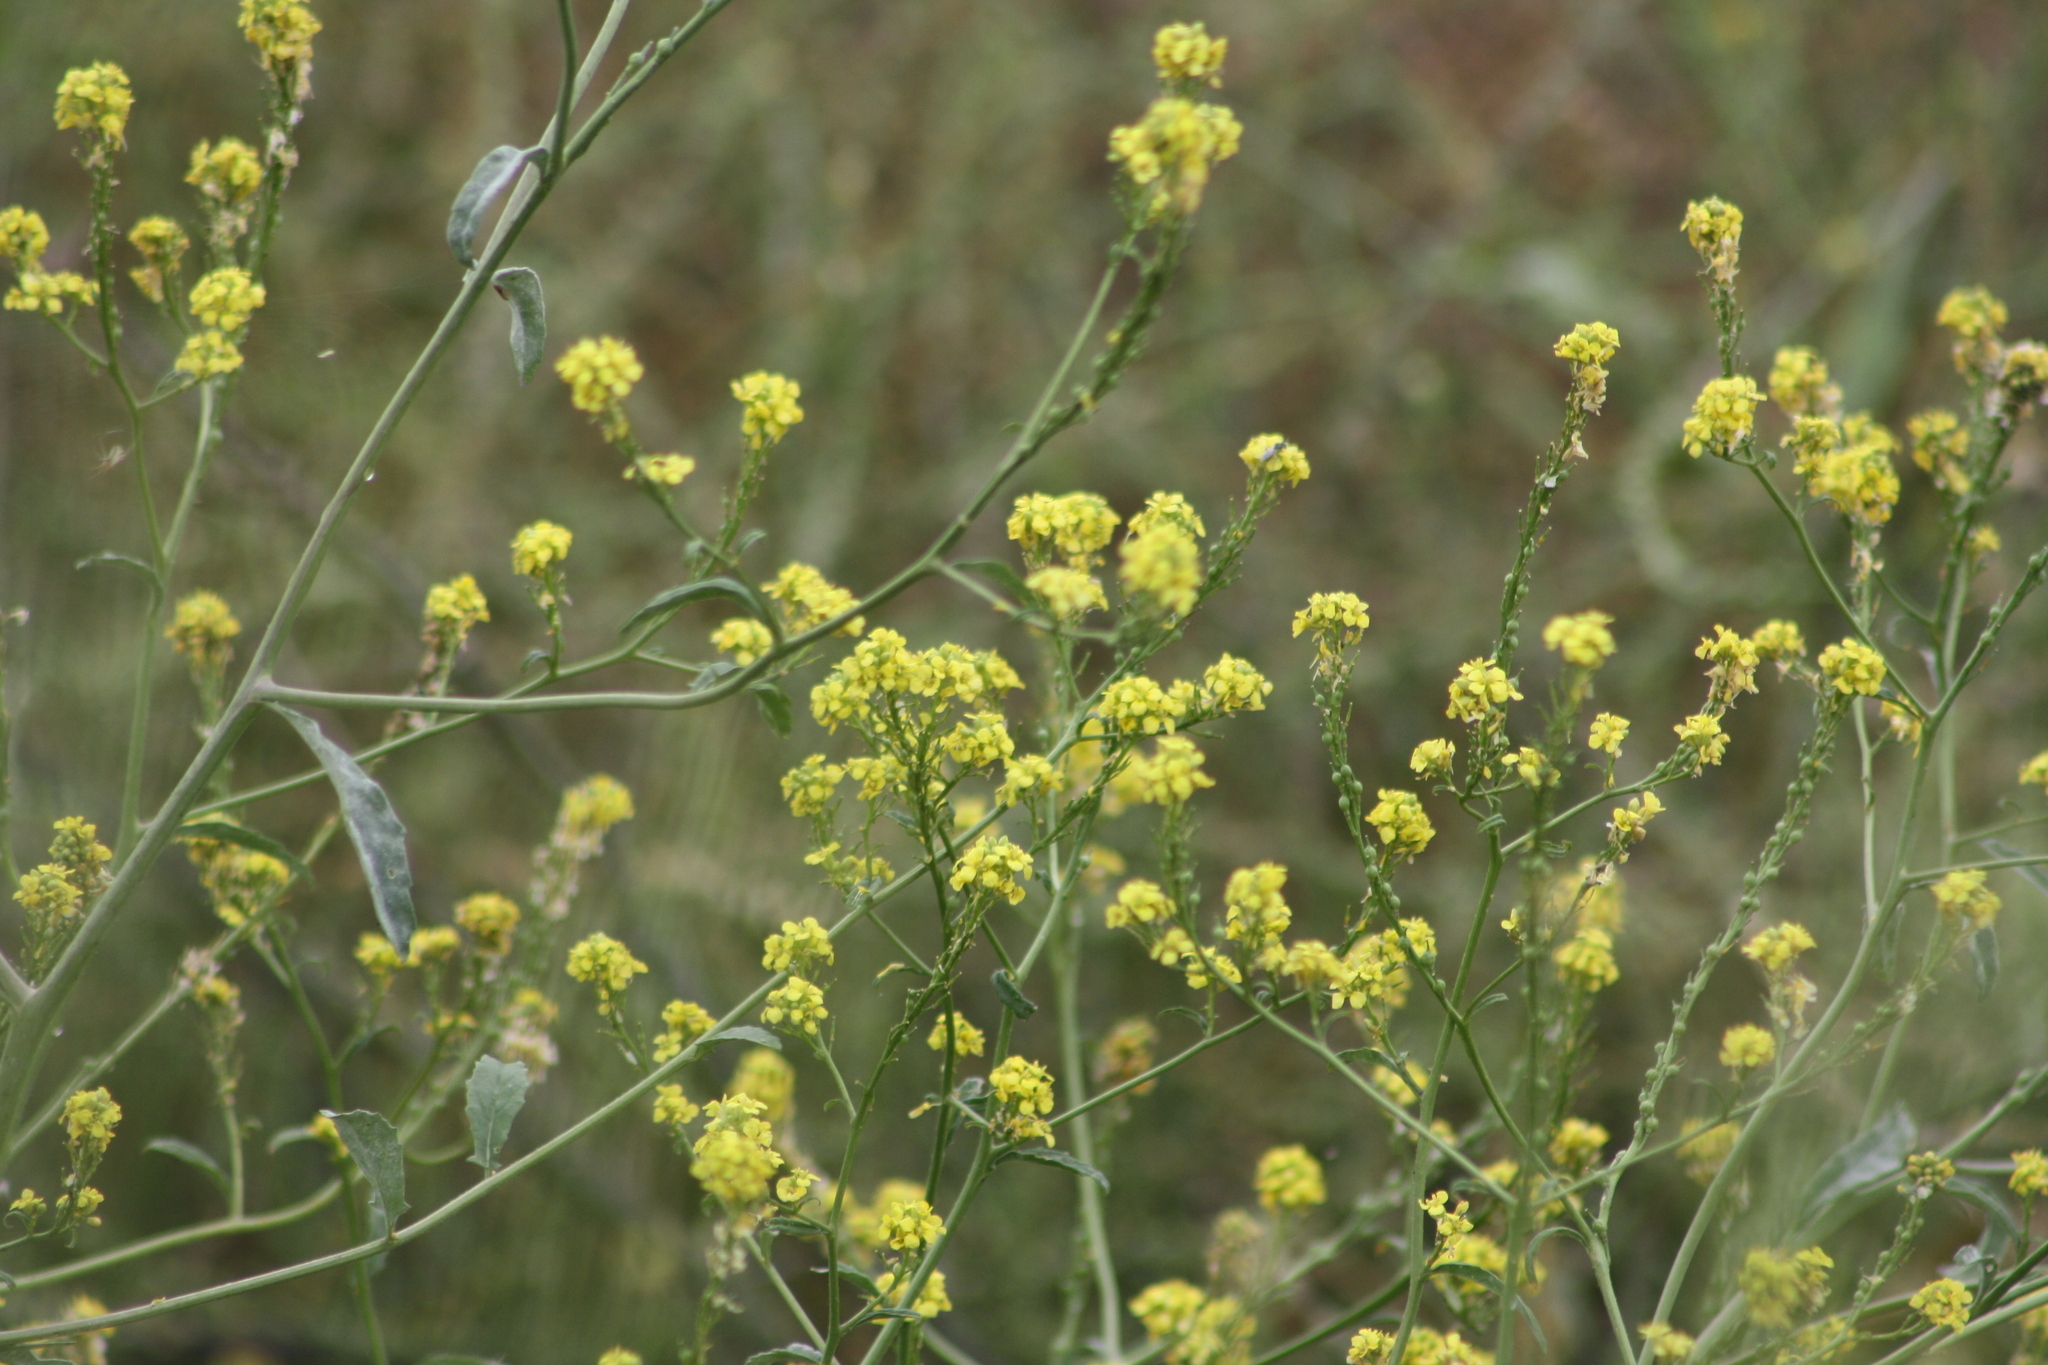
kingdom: Plantae
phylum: Tracheophyta
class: Magnoliopsida
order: Brassicales
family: Brassicaceae
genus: Rapistrum
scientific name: Rapistrum rugosum
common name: Annual bastardcabbage
